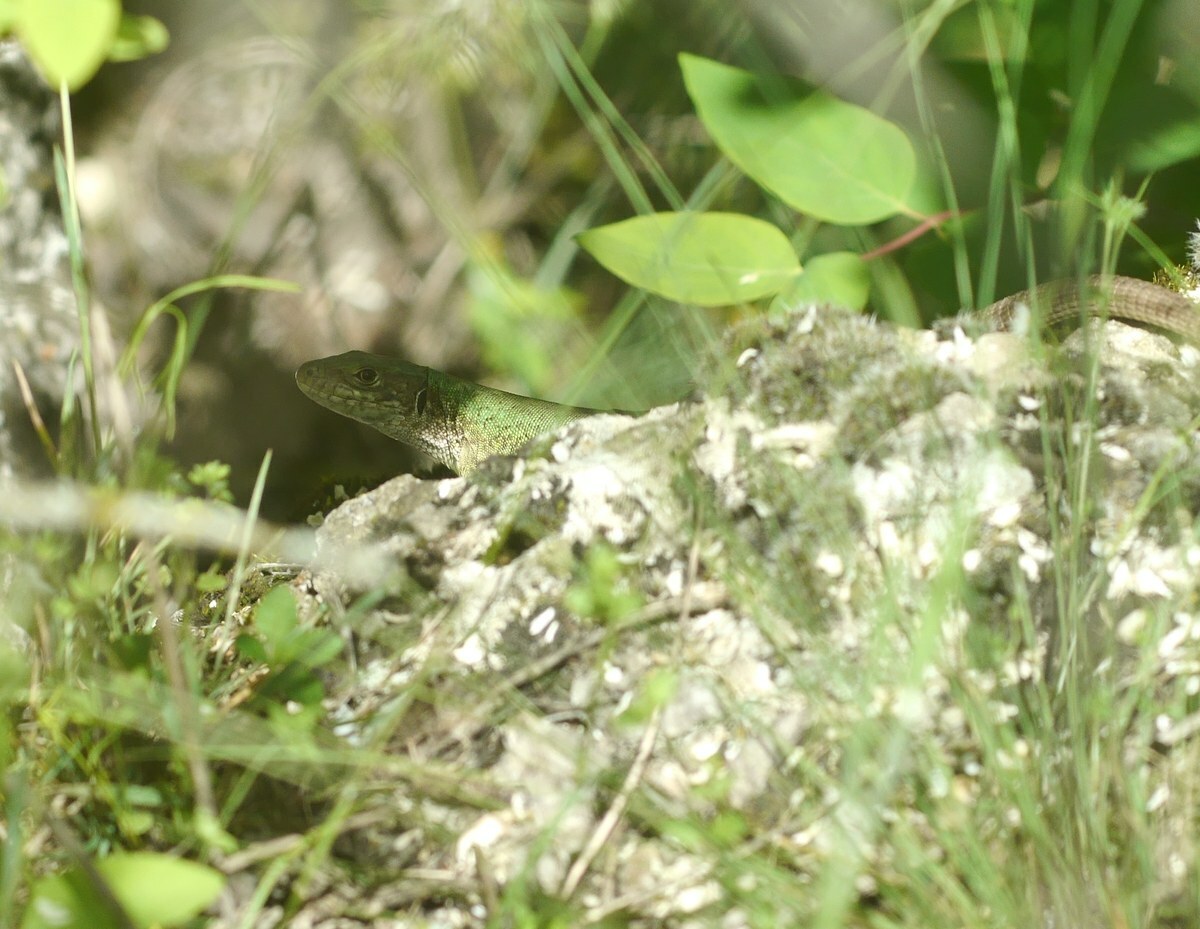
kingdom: Animalia
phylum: Chordata
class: Squamata
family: Lacertidae
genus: Lacerta
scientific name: Lacerta viridis
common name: European green lizard
